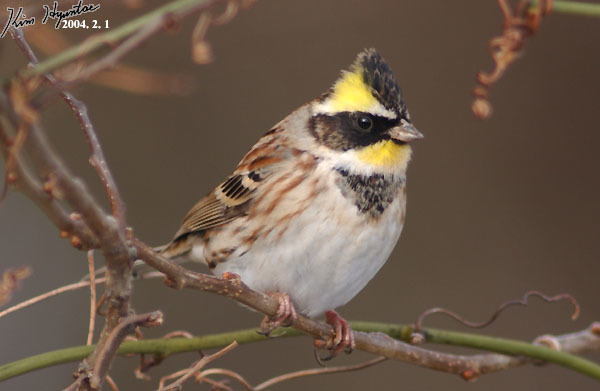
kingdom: Animalia
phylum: Chordata
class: Aves
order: Passeriformes
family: Emberizidae
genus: Emberiza
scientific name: Emberiza elegans
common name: Yellow-throated bunting
